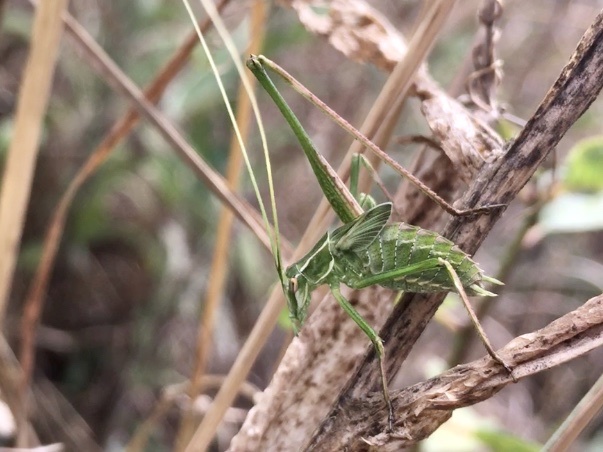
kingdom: Animalia
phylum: Arthropoda
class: Insecta
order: Orthoptera
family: Tettigoniidae
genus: Tylopsis
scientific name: Tylopsis lilifolia
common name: Lily bush-cricket
